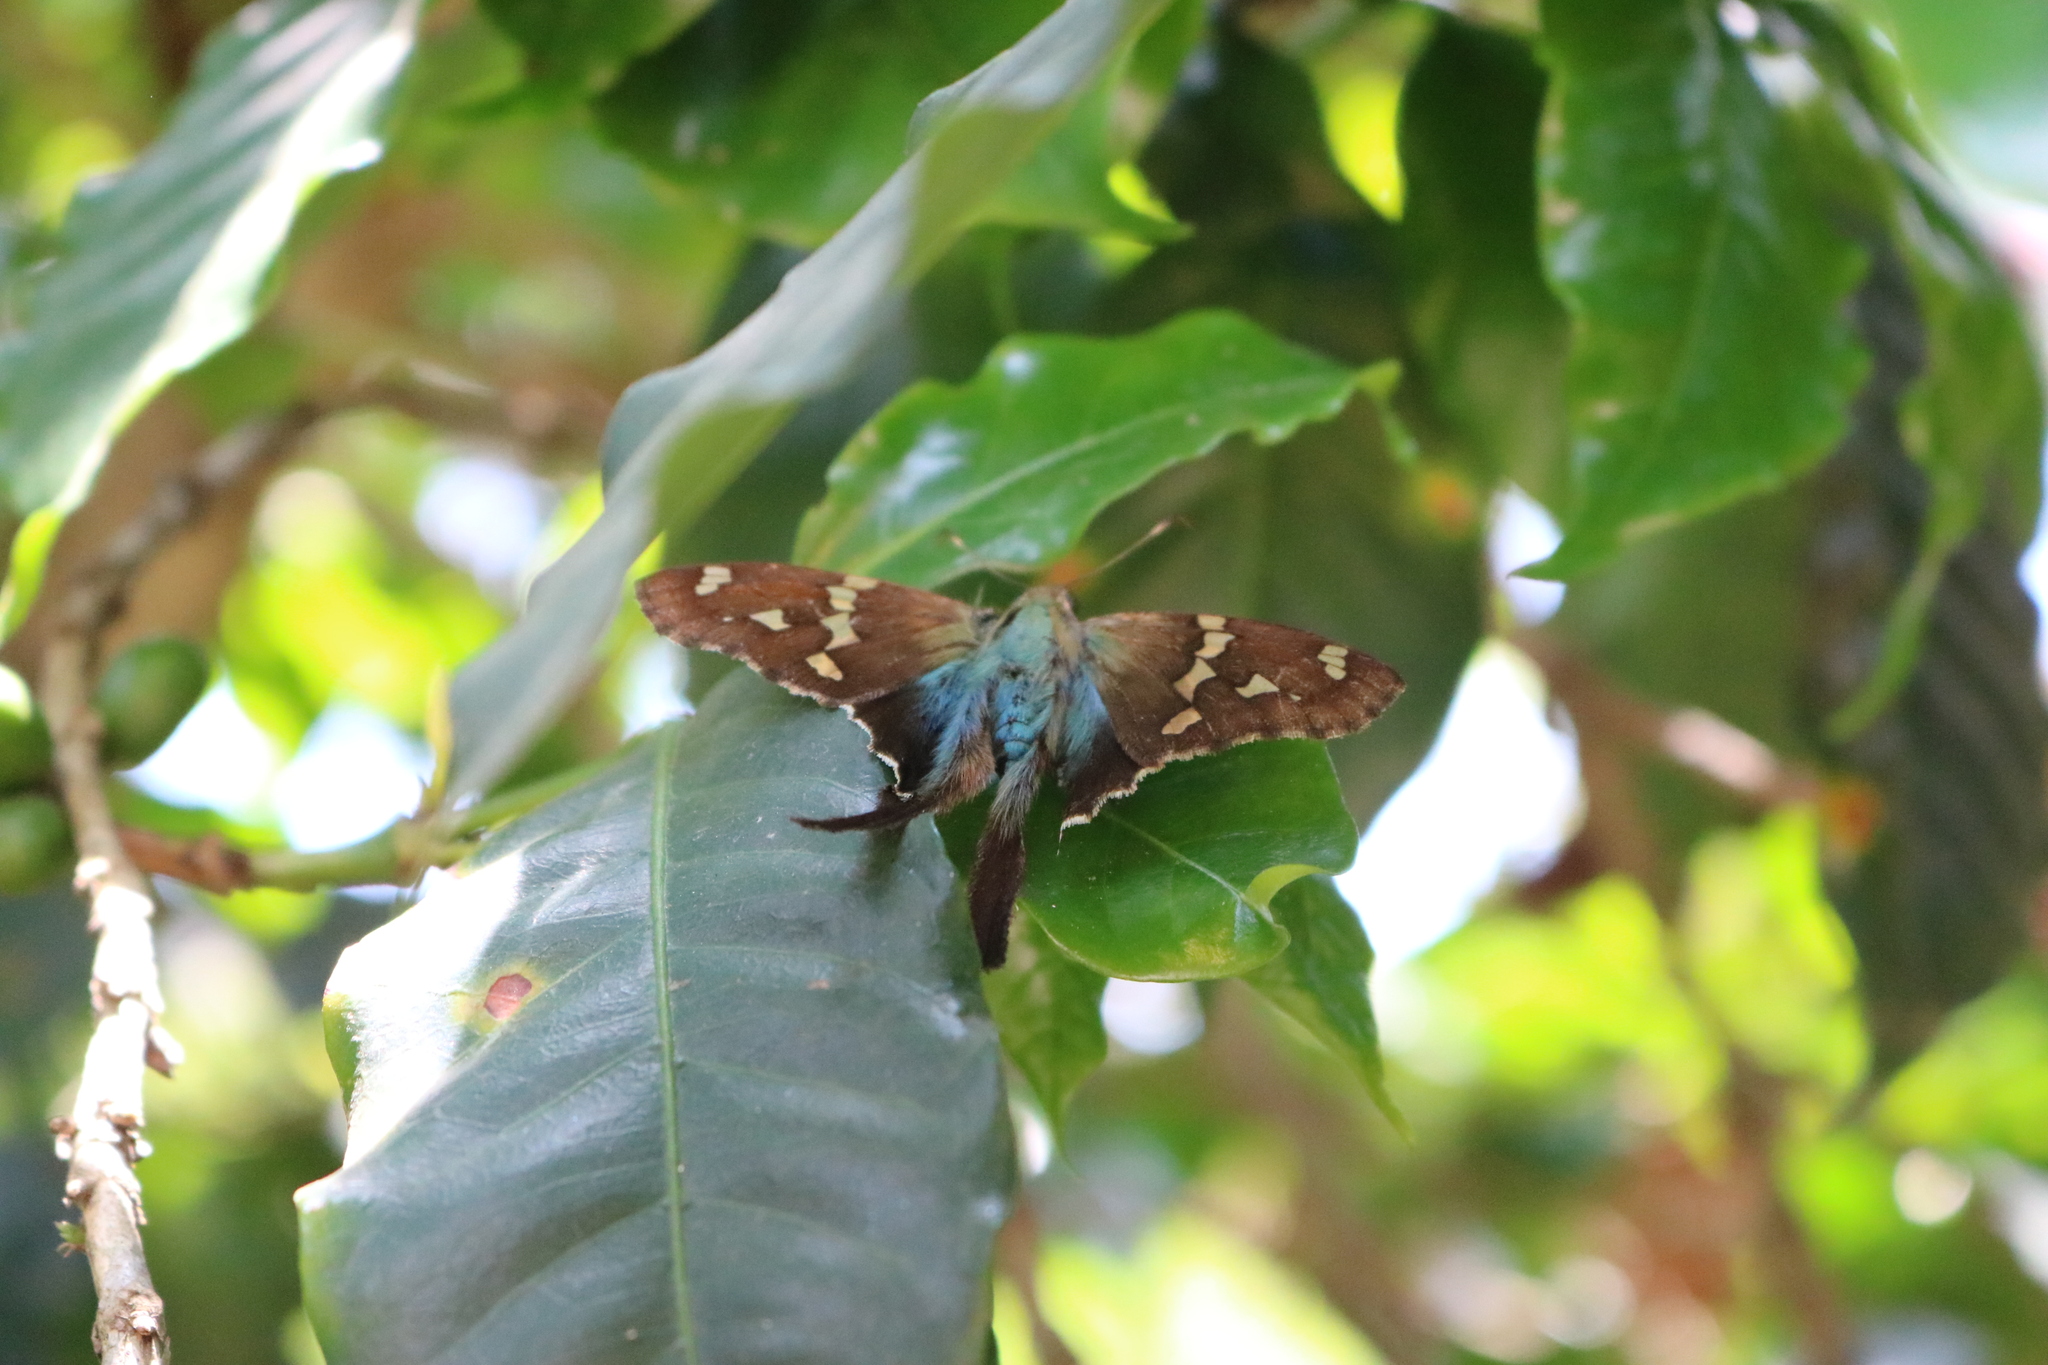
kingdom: Animalia
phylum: Arthropoda
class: Insecta
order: Lepidoptera
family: Hesperiidae
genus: Urbanus
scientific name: Urbanus proteus
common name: Long-tailed skipper
